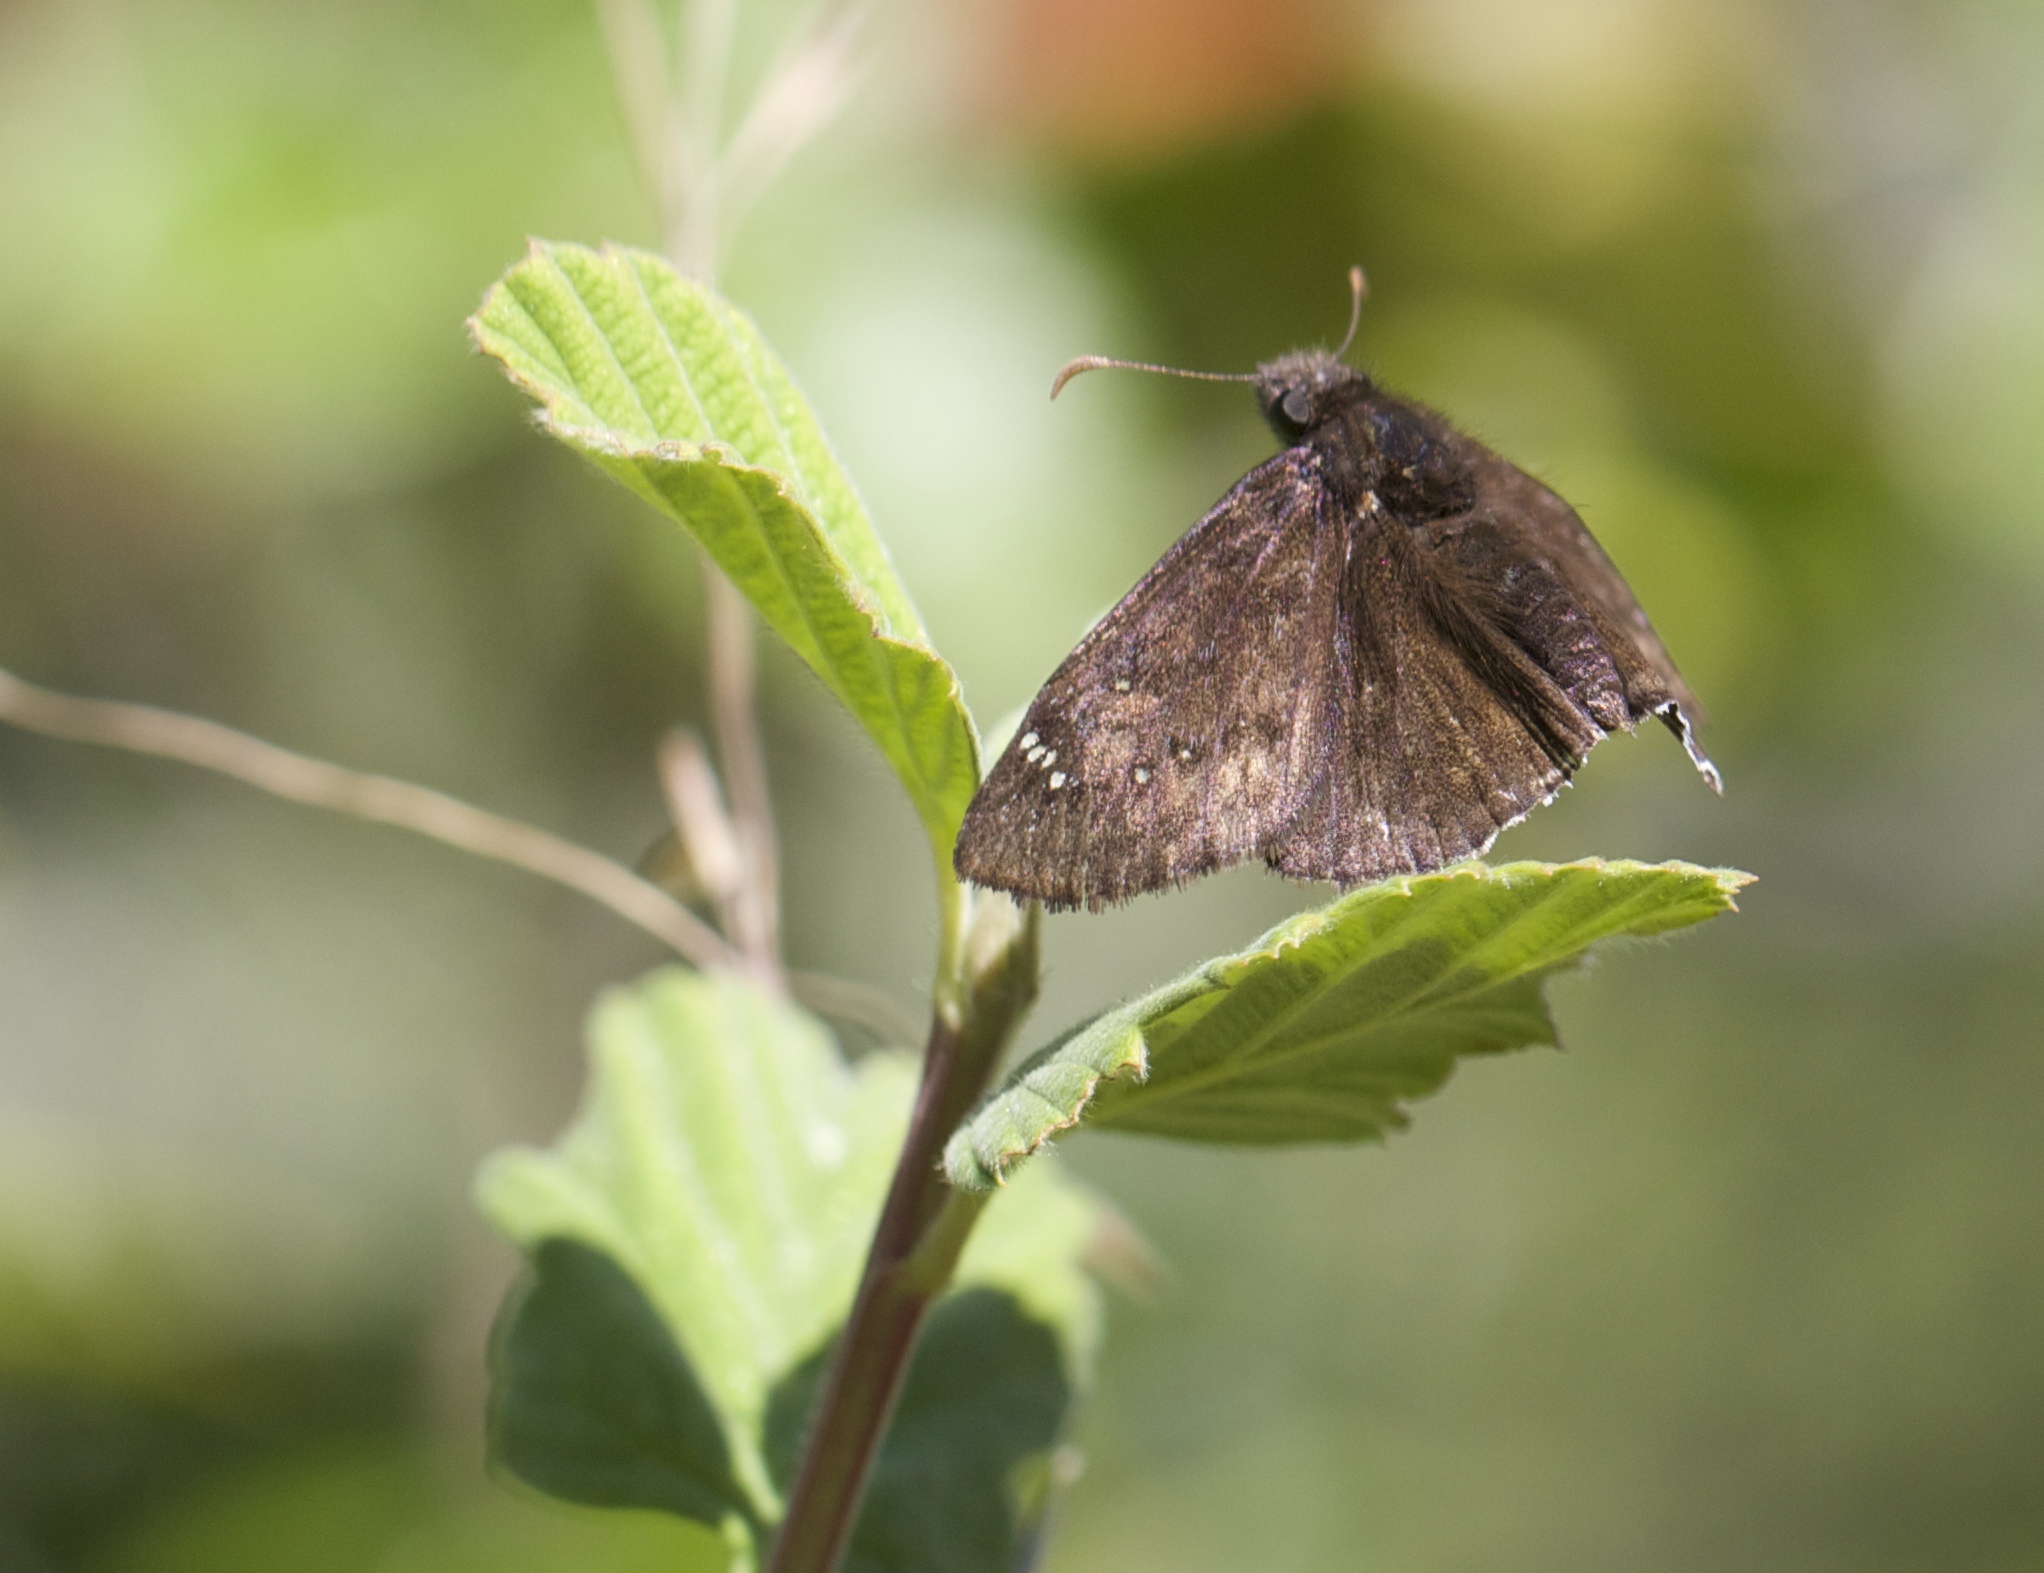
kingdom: Animalia
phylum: Arthropoda
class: Insecta
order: Lepidoptera
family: Hesperiidae
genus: Erynnis
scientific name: Erynnis tristis
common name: Mournful duskywing
